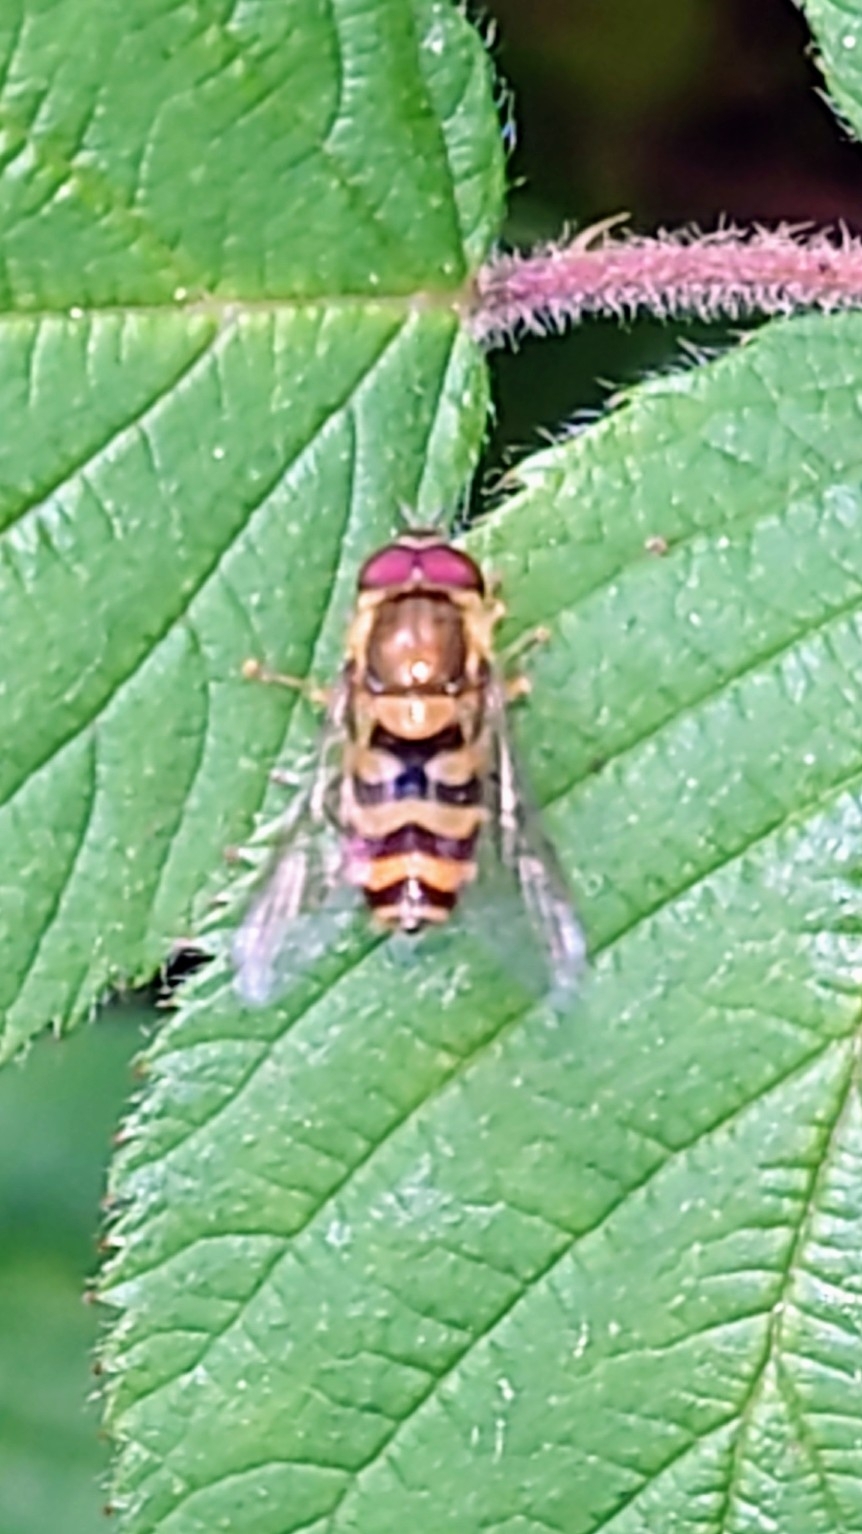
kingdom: Animalia
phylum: Arthropoda
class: Insecta
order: Diptera
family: Syrphidae
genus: Syrphus
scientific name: Syrphus
